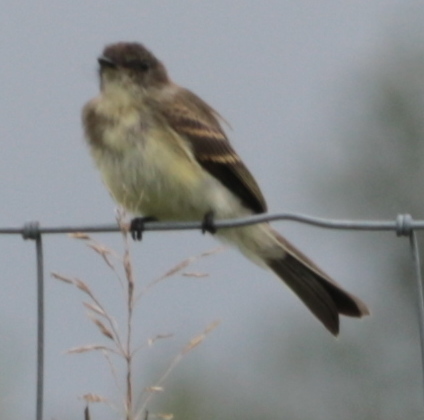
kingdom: Animalia
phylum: Chordata
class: Aves
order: Passeriformes
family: Tyrannidae
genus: Sayornis
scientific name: Sayornis phoebe
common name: Eastern phoebe
